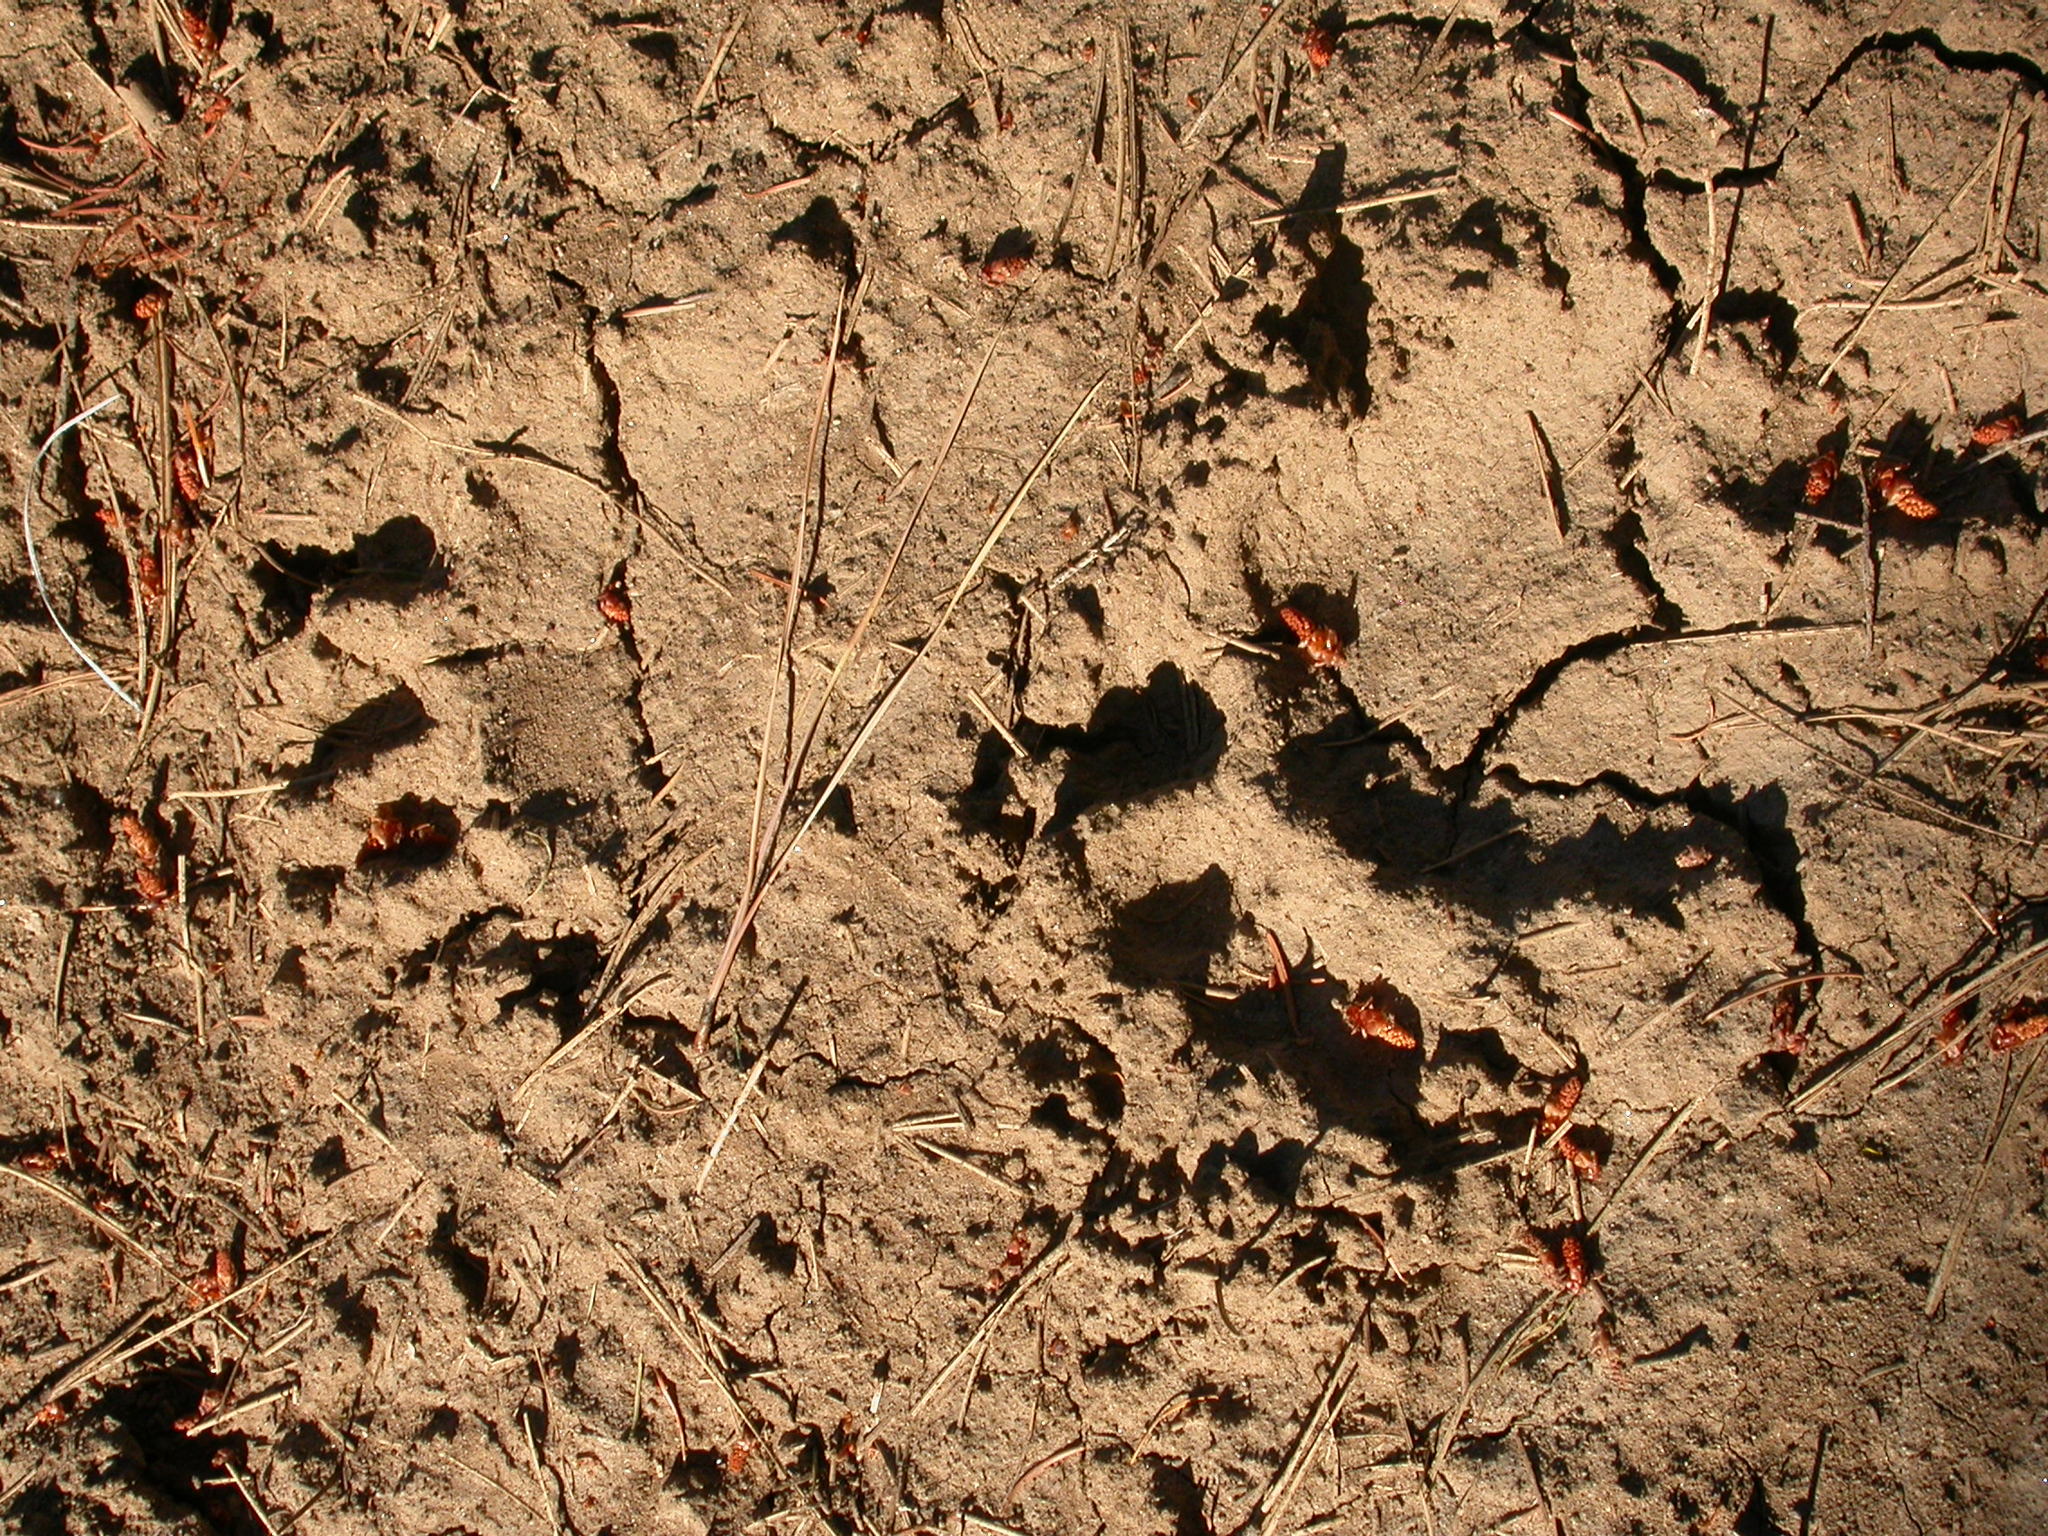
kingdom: Animalia
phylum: Chordata
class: Mammalia
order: Carnivora
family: Ursidae
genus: Ursus
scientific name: Ursus americanus
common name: American black bear
